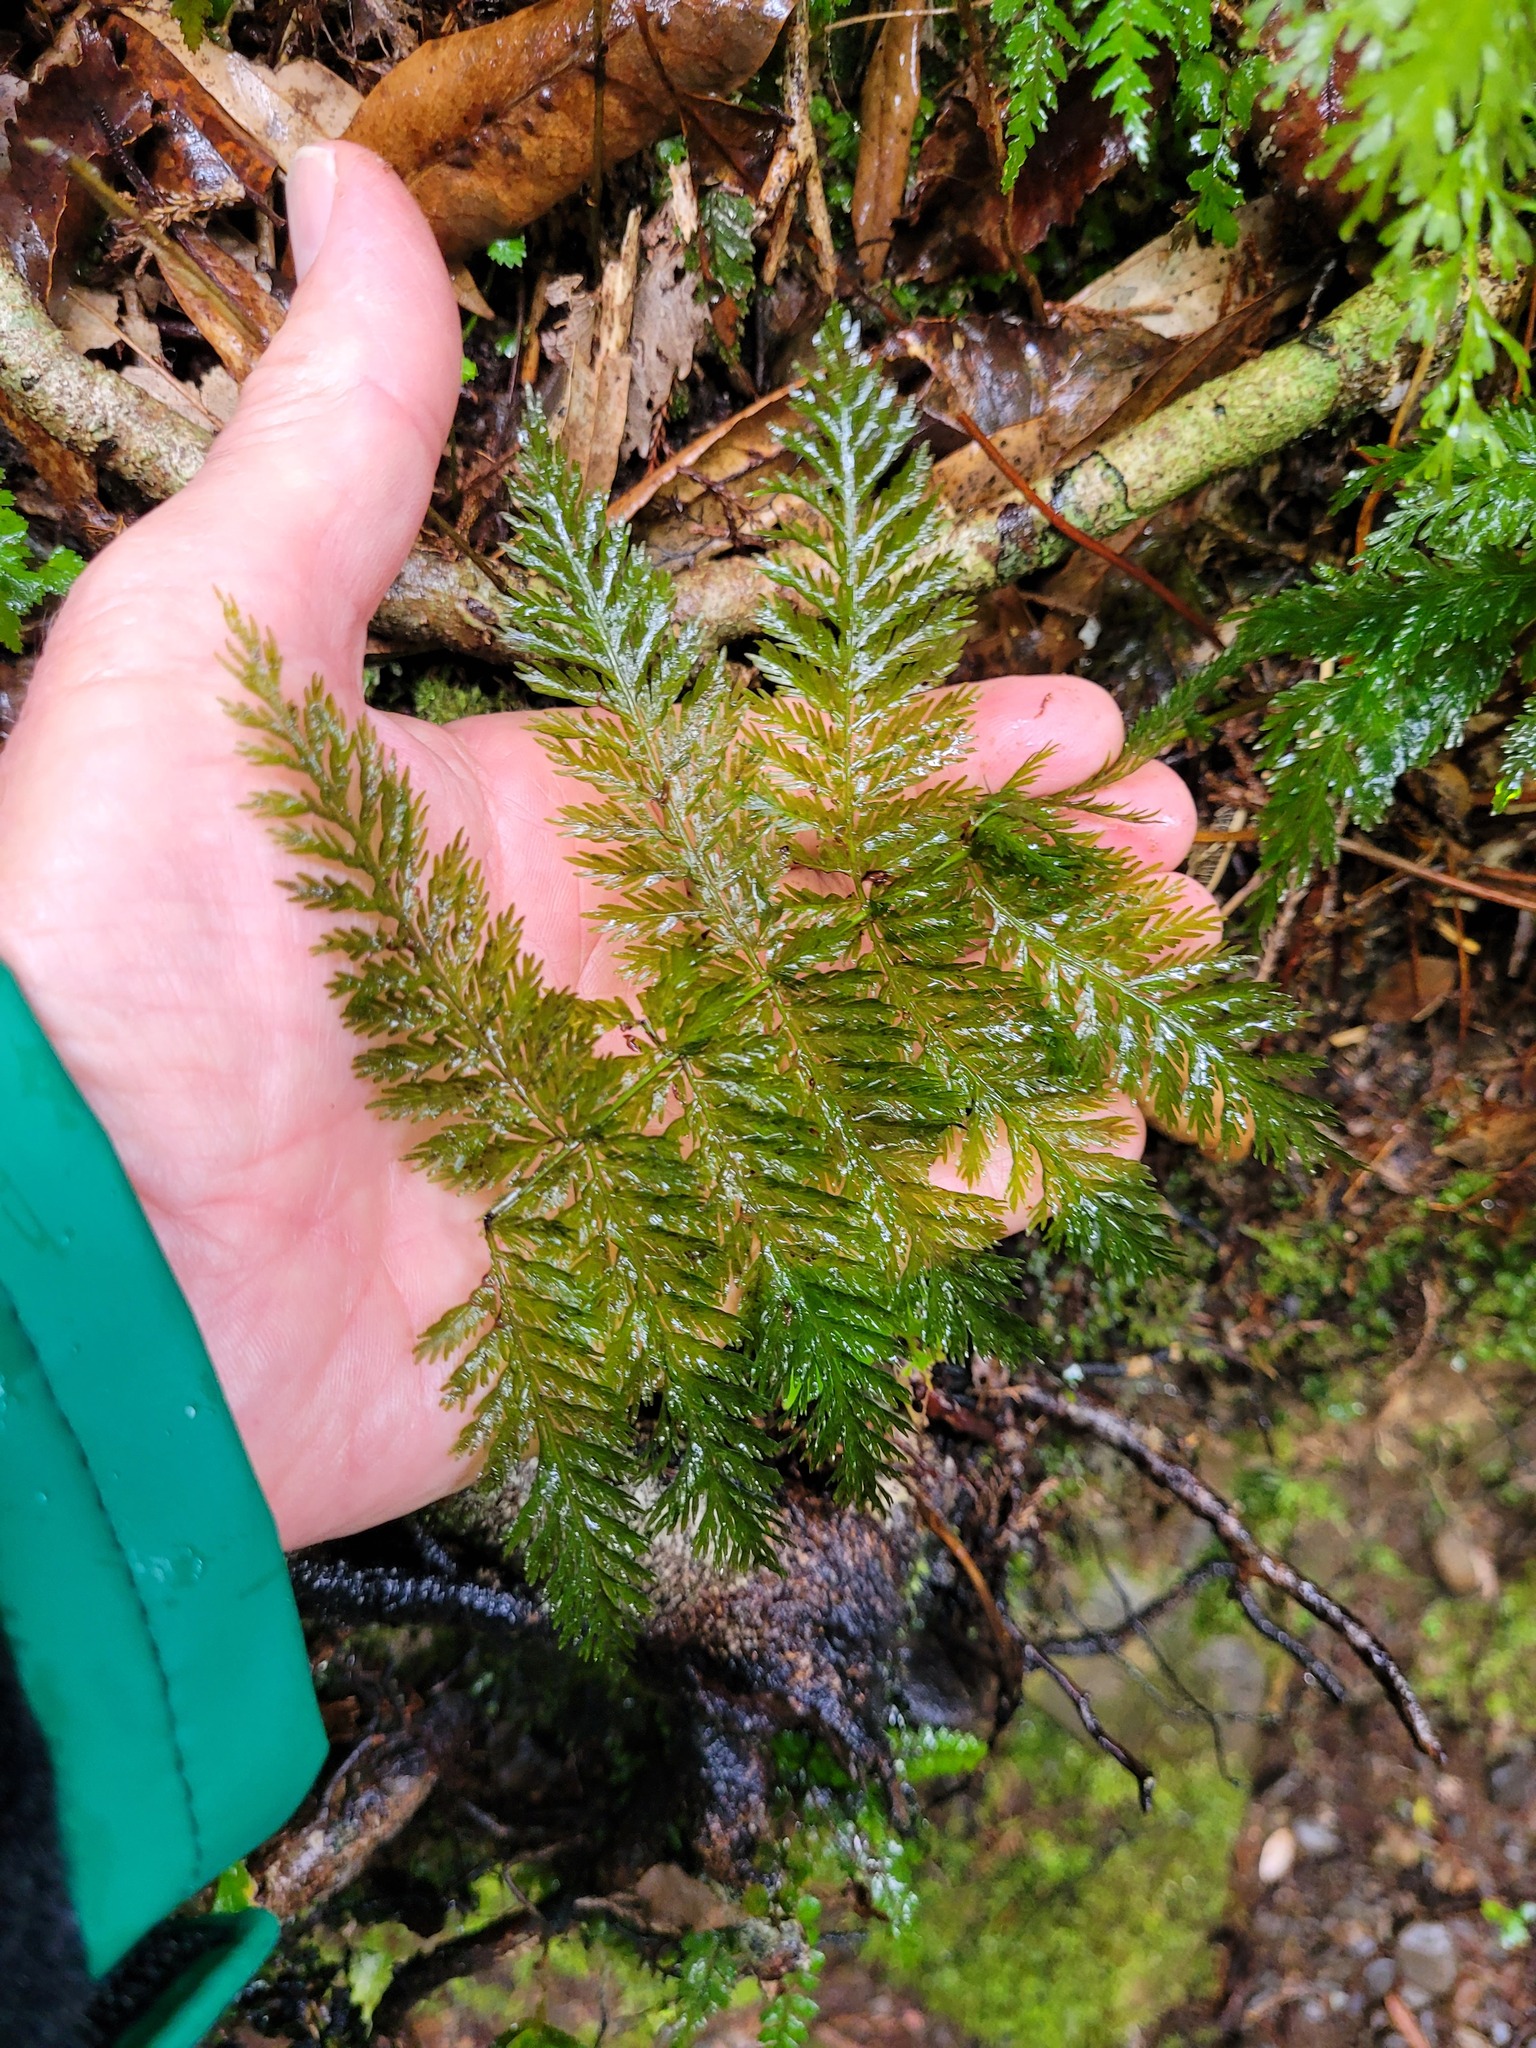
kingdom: Plantae
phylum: Tracheophyta
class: Polypodiopsida
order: Osmundales
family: Osmundaceae
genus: Leptopteris
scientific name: Leptopteris hymenophylloides
